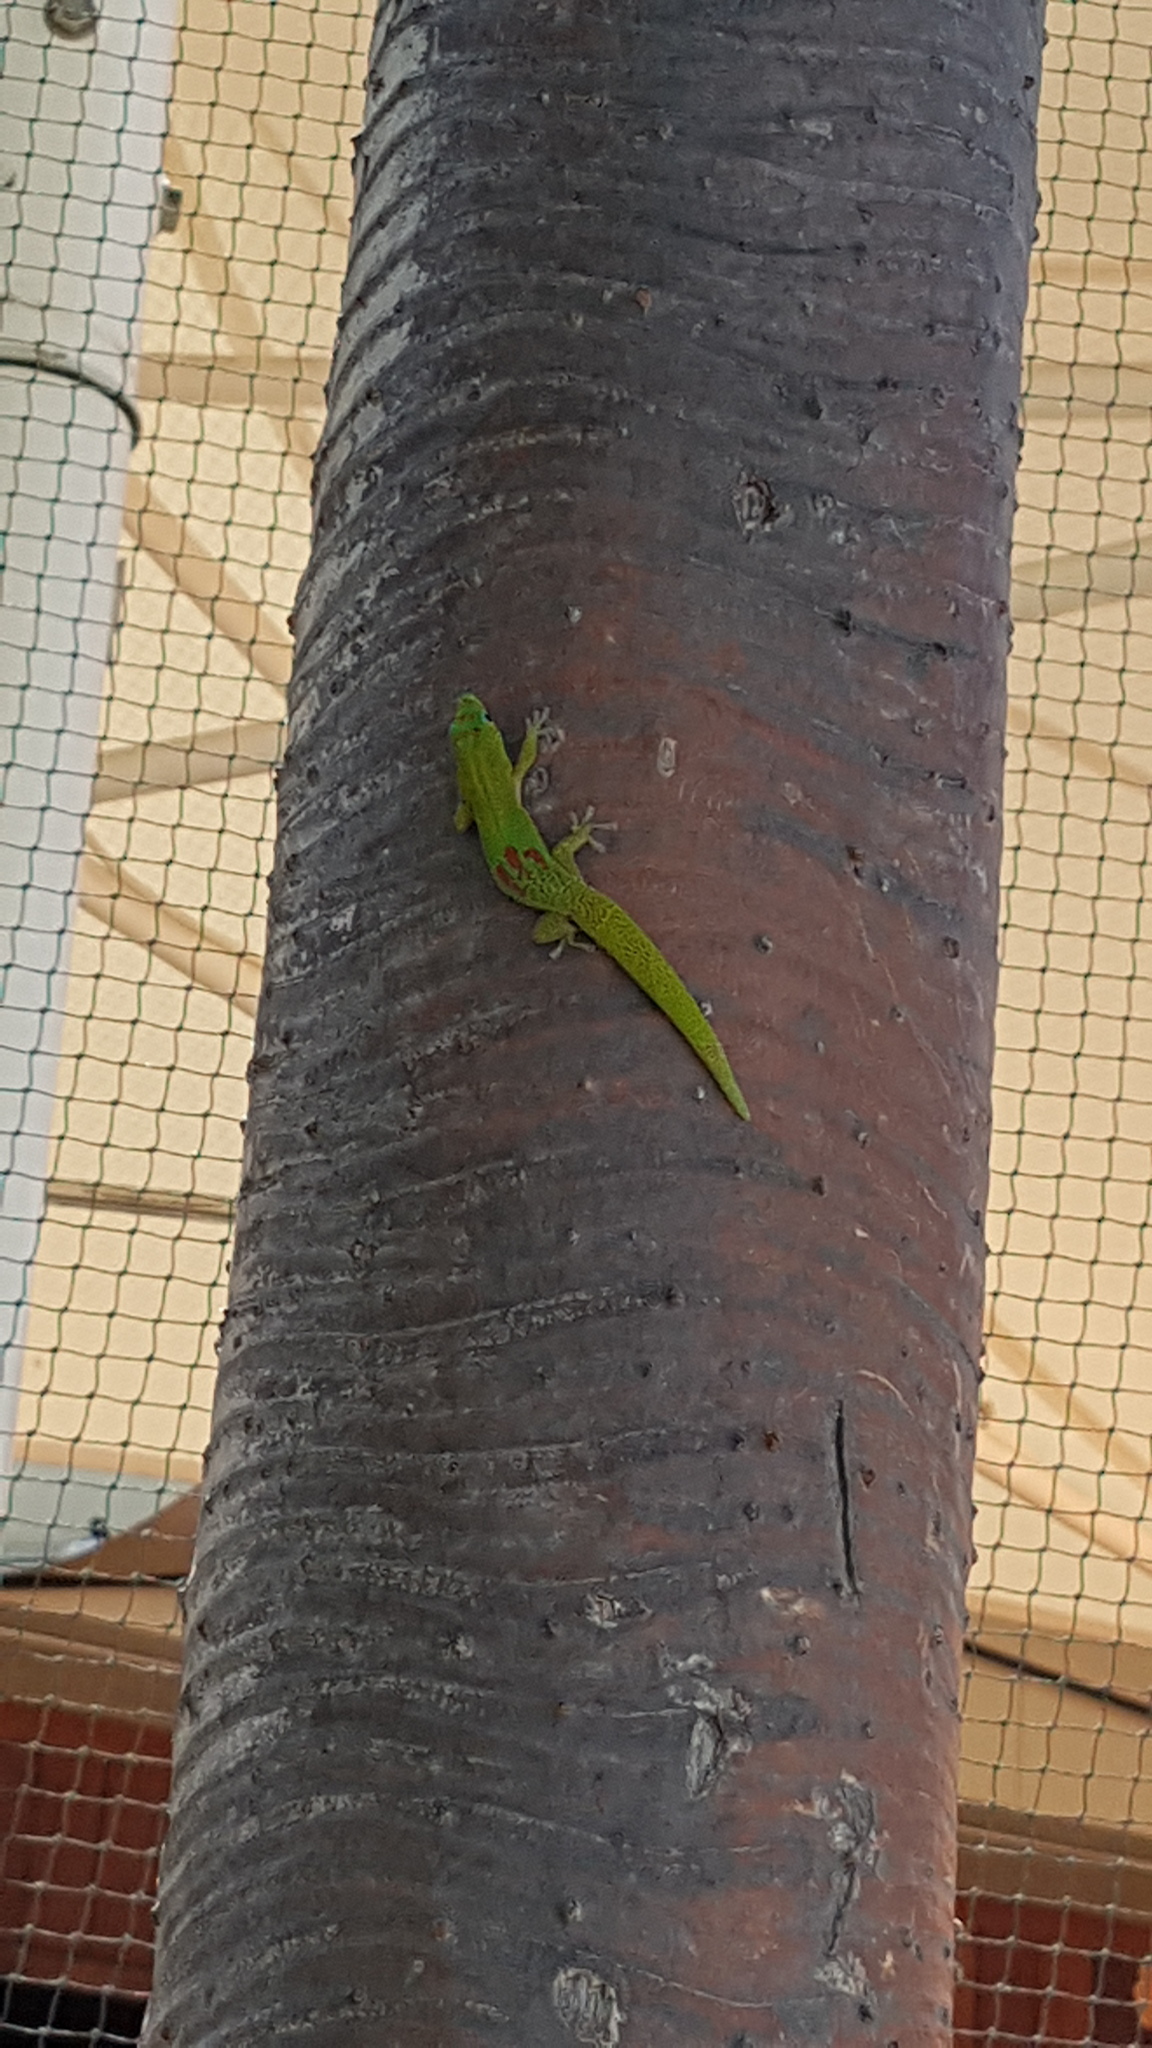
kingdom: Animalia
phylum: Chordata
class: Squamata
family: Gekkonidae
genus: Phelsuma
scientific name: Phelsuma laticauda
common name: Gold dust day gecko
